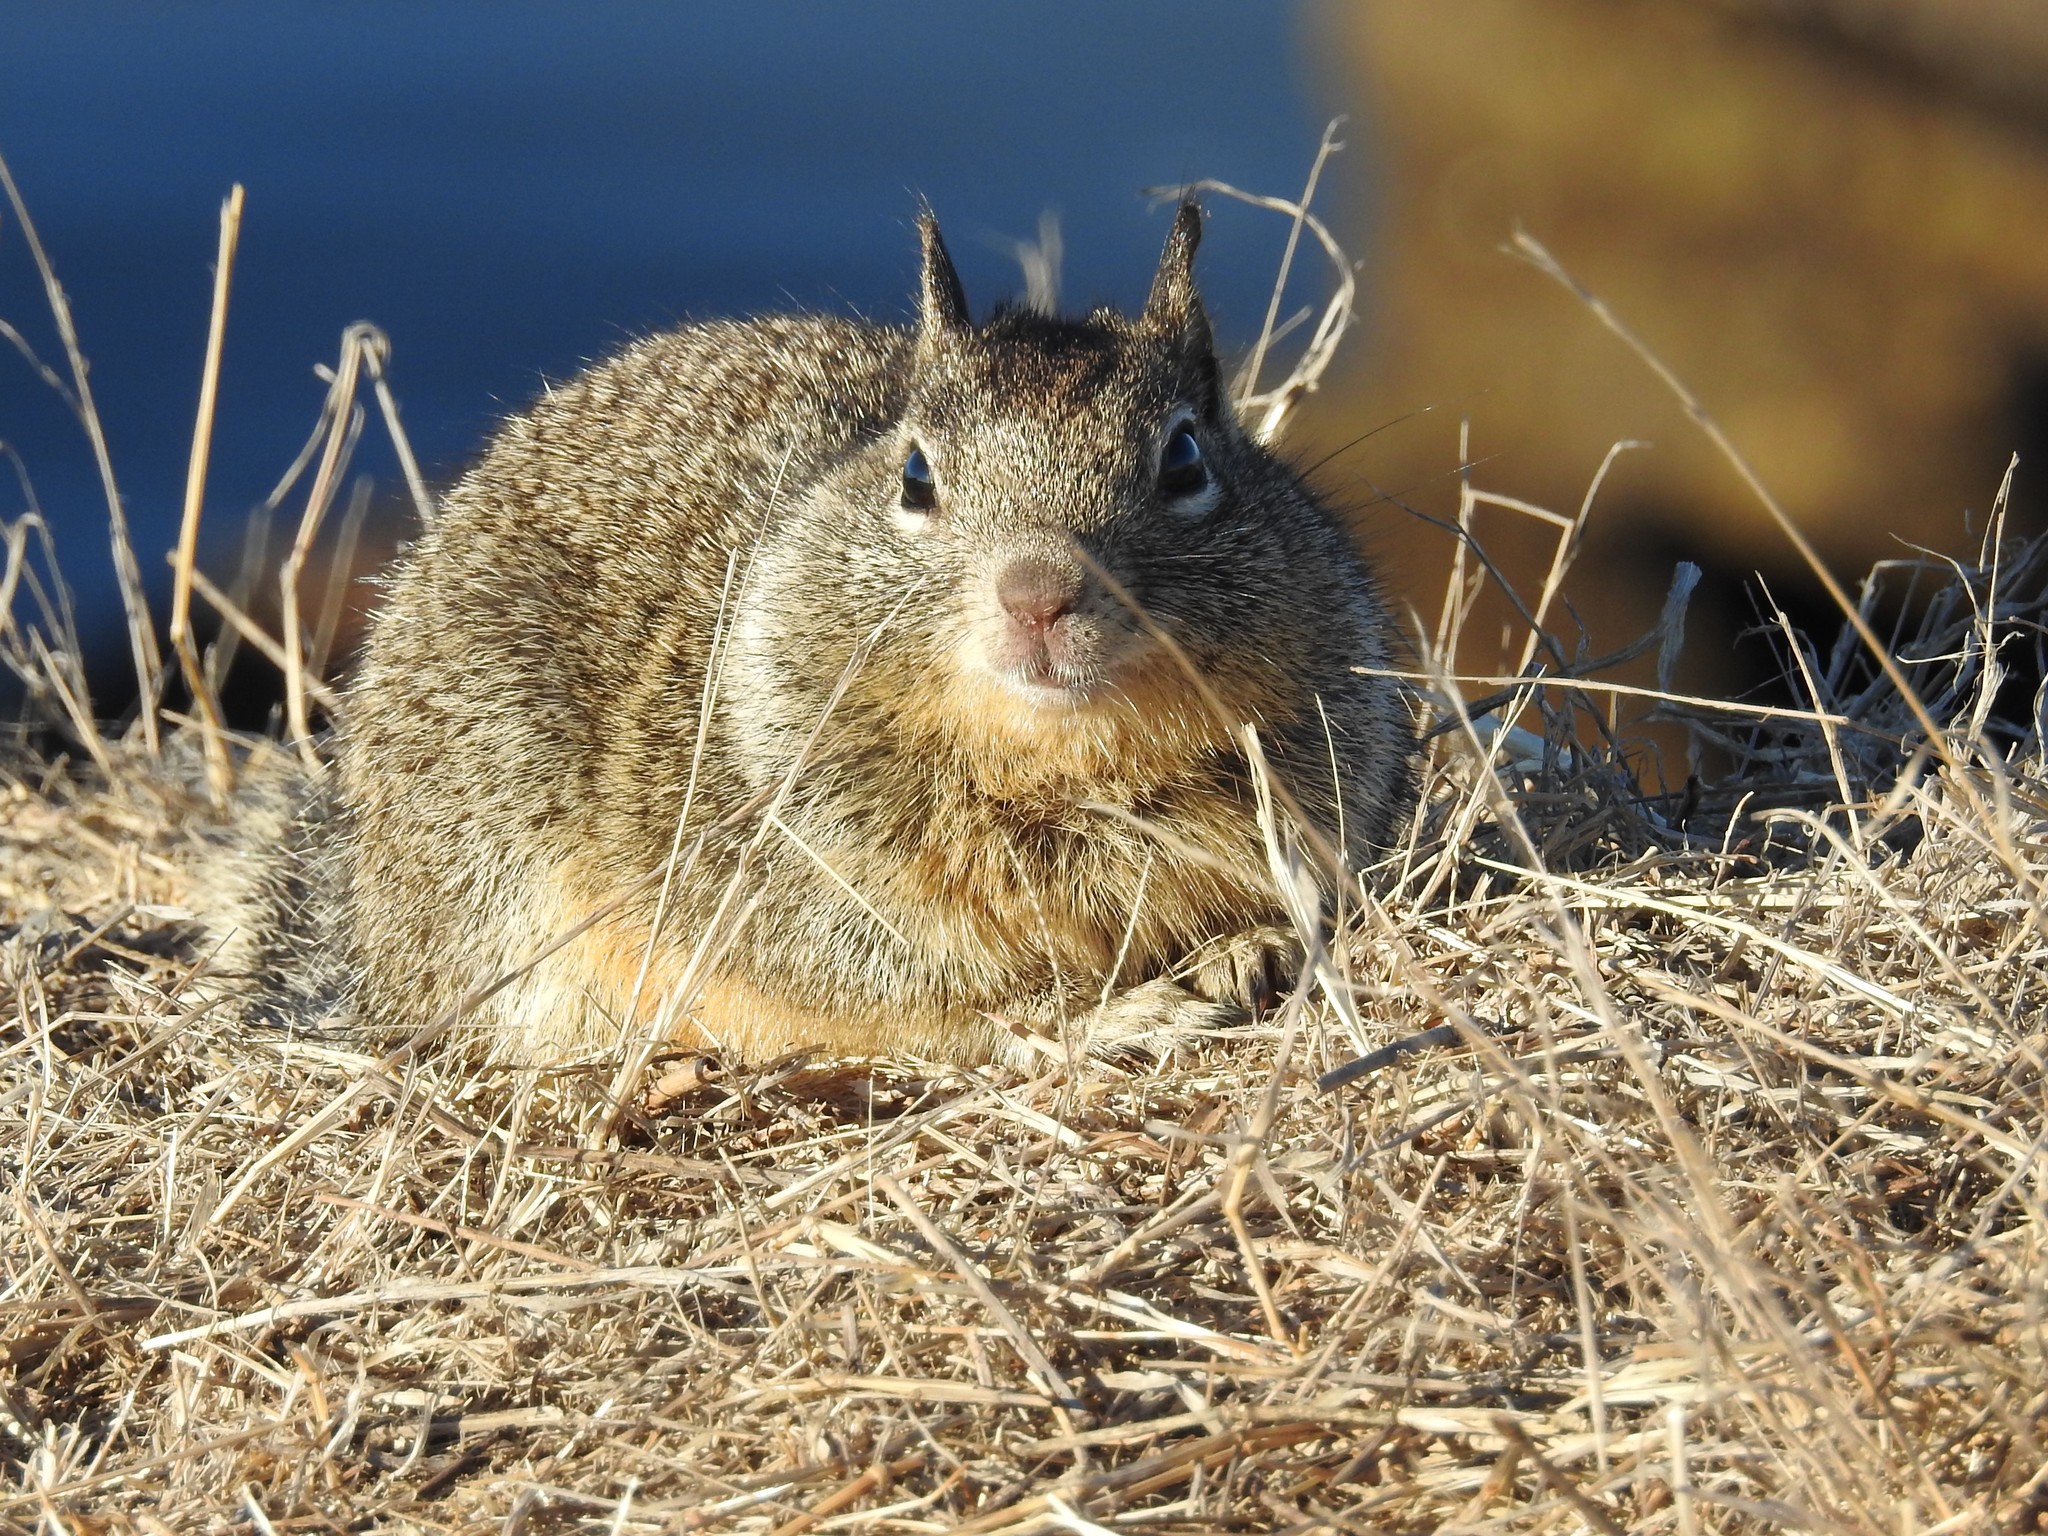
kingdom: Animalia
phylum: Chordata
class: Mammalia
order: Rodentia
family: Sciuridae
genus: Otospermophilus
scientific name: Otospermophilus beecheyi
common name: California ground squirrel
